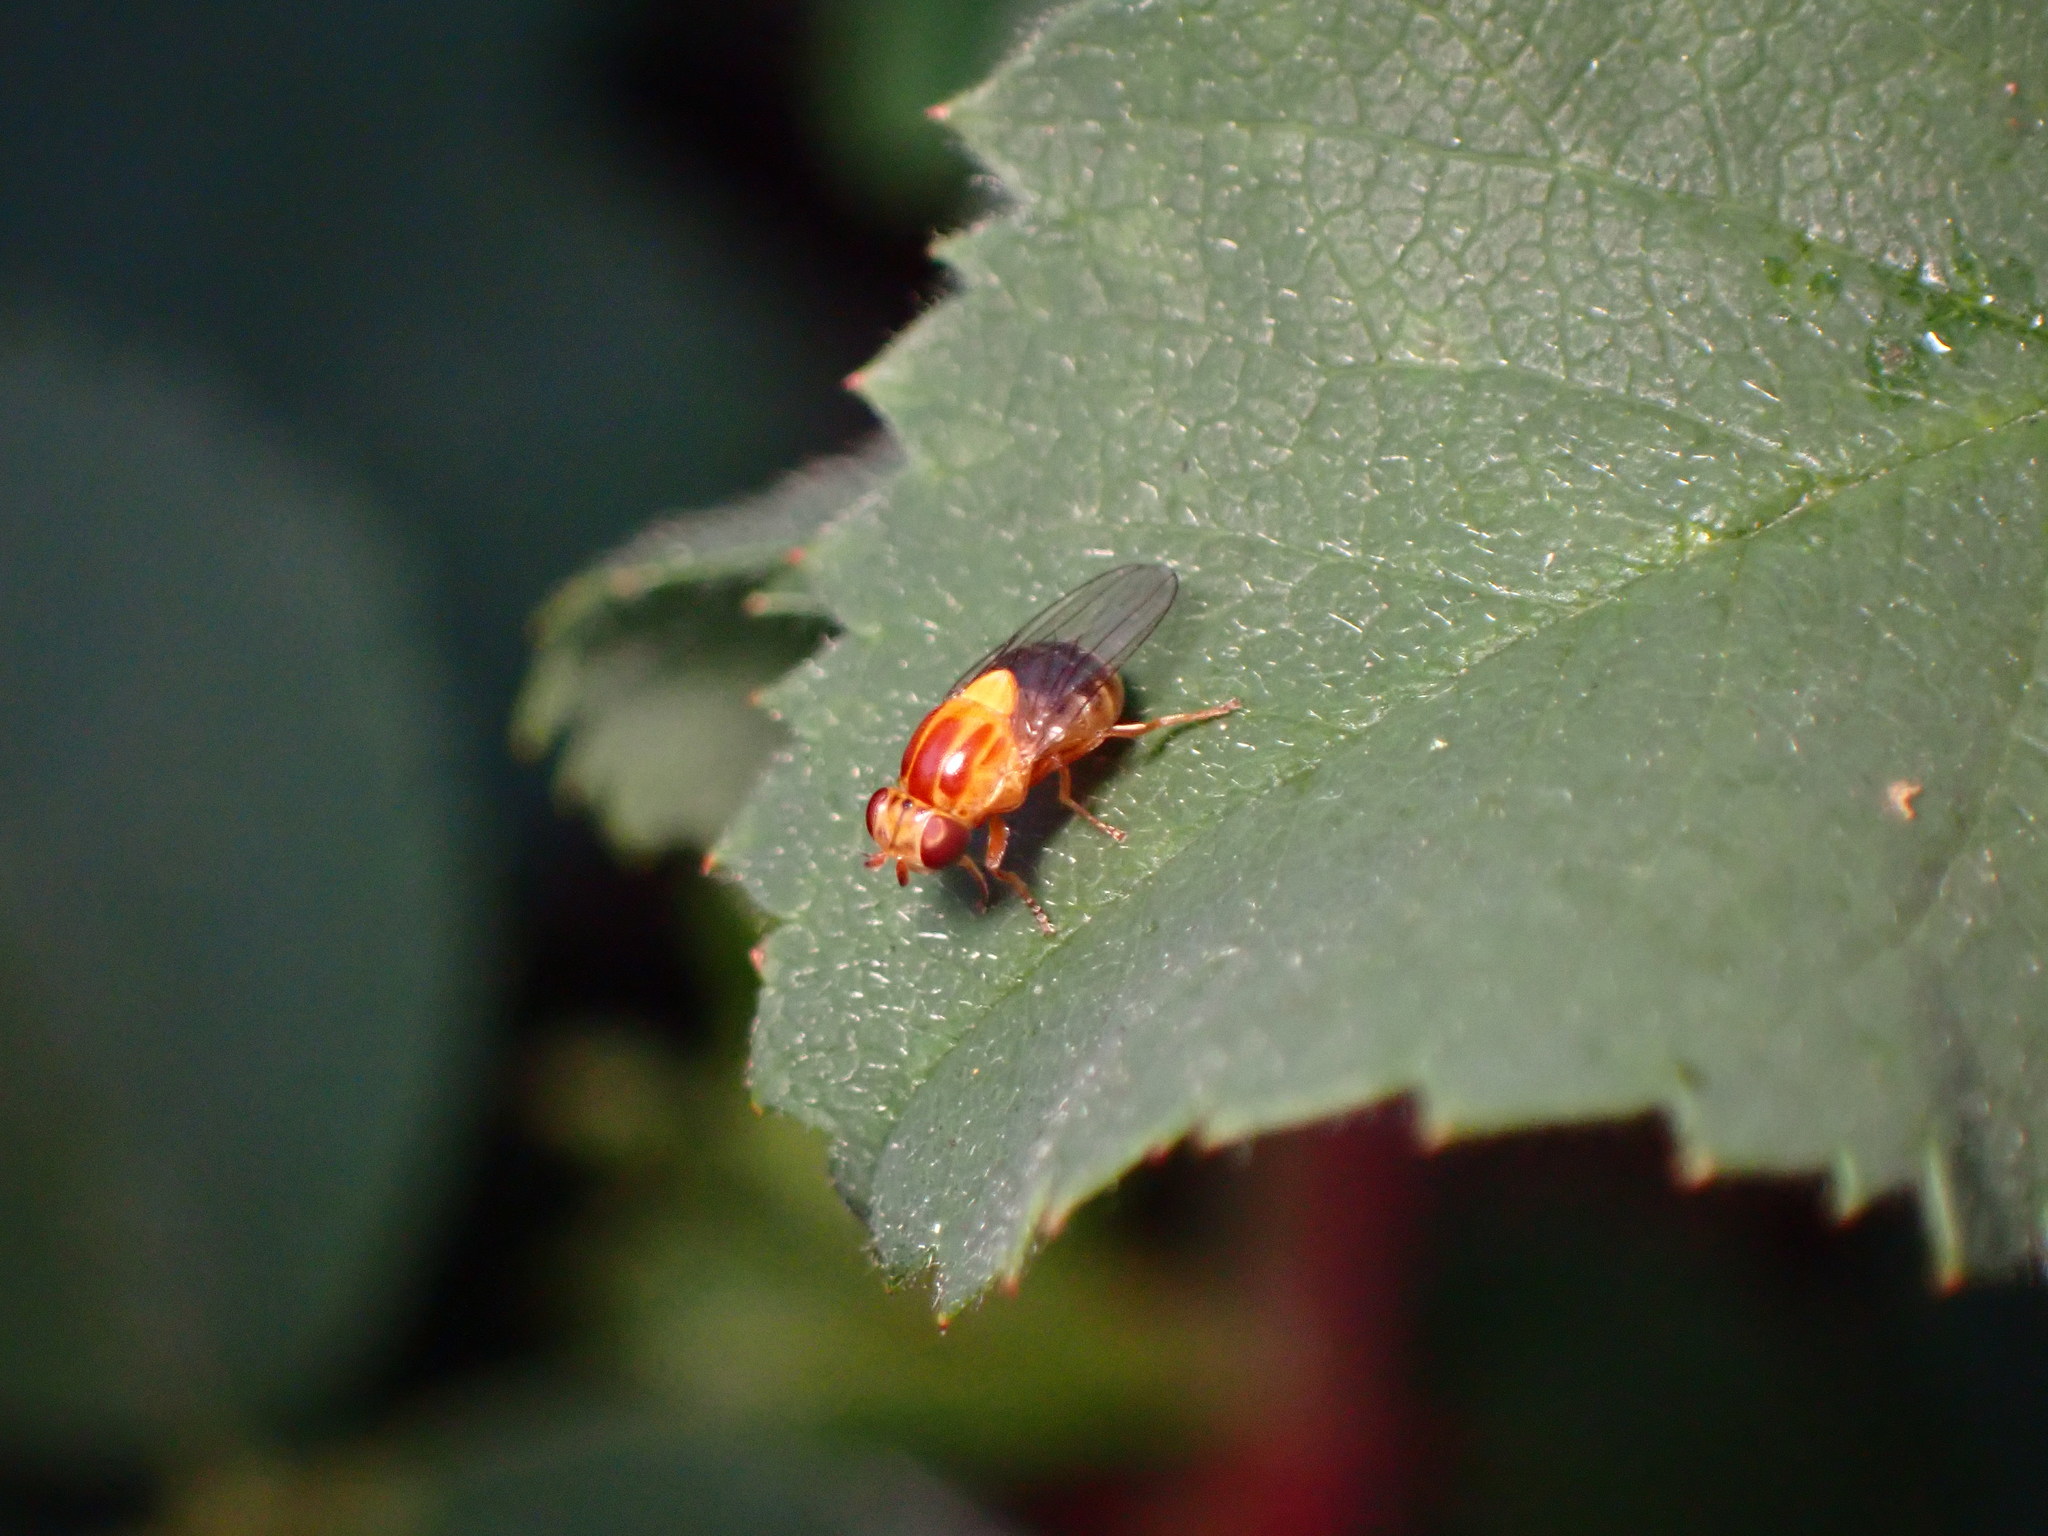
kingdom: Animalia
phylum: Arthropoda
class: Insecta
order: Diptera
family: Chloropidae
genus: Thaumatomyia
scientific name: Thaumatomyia rubida
